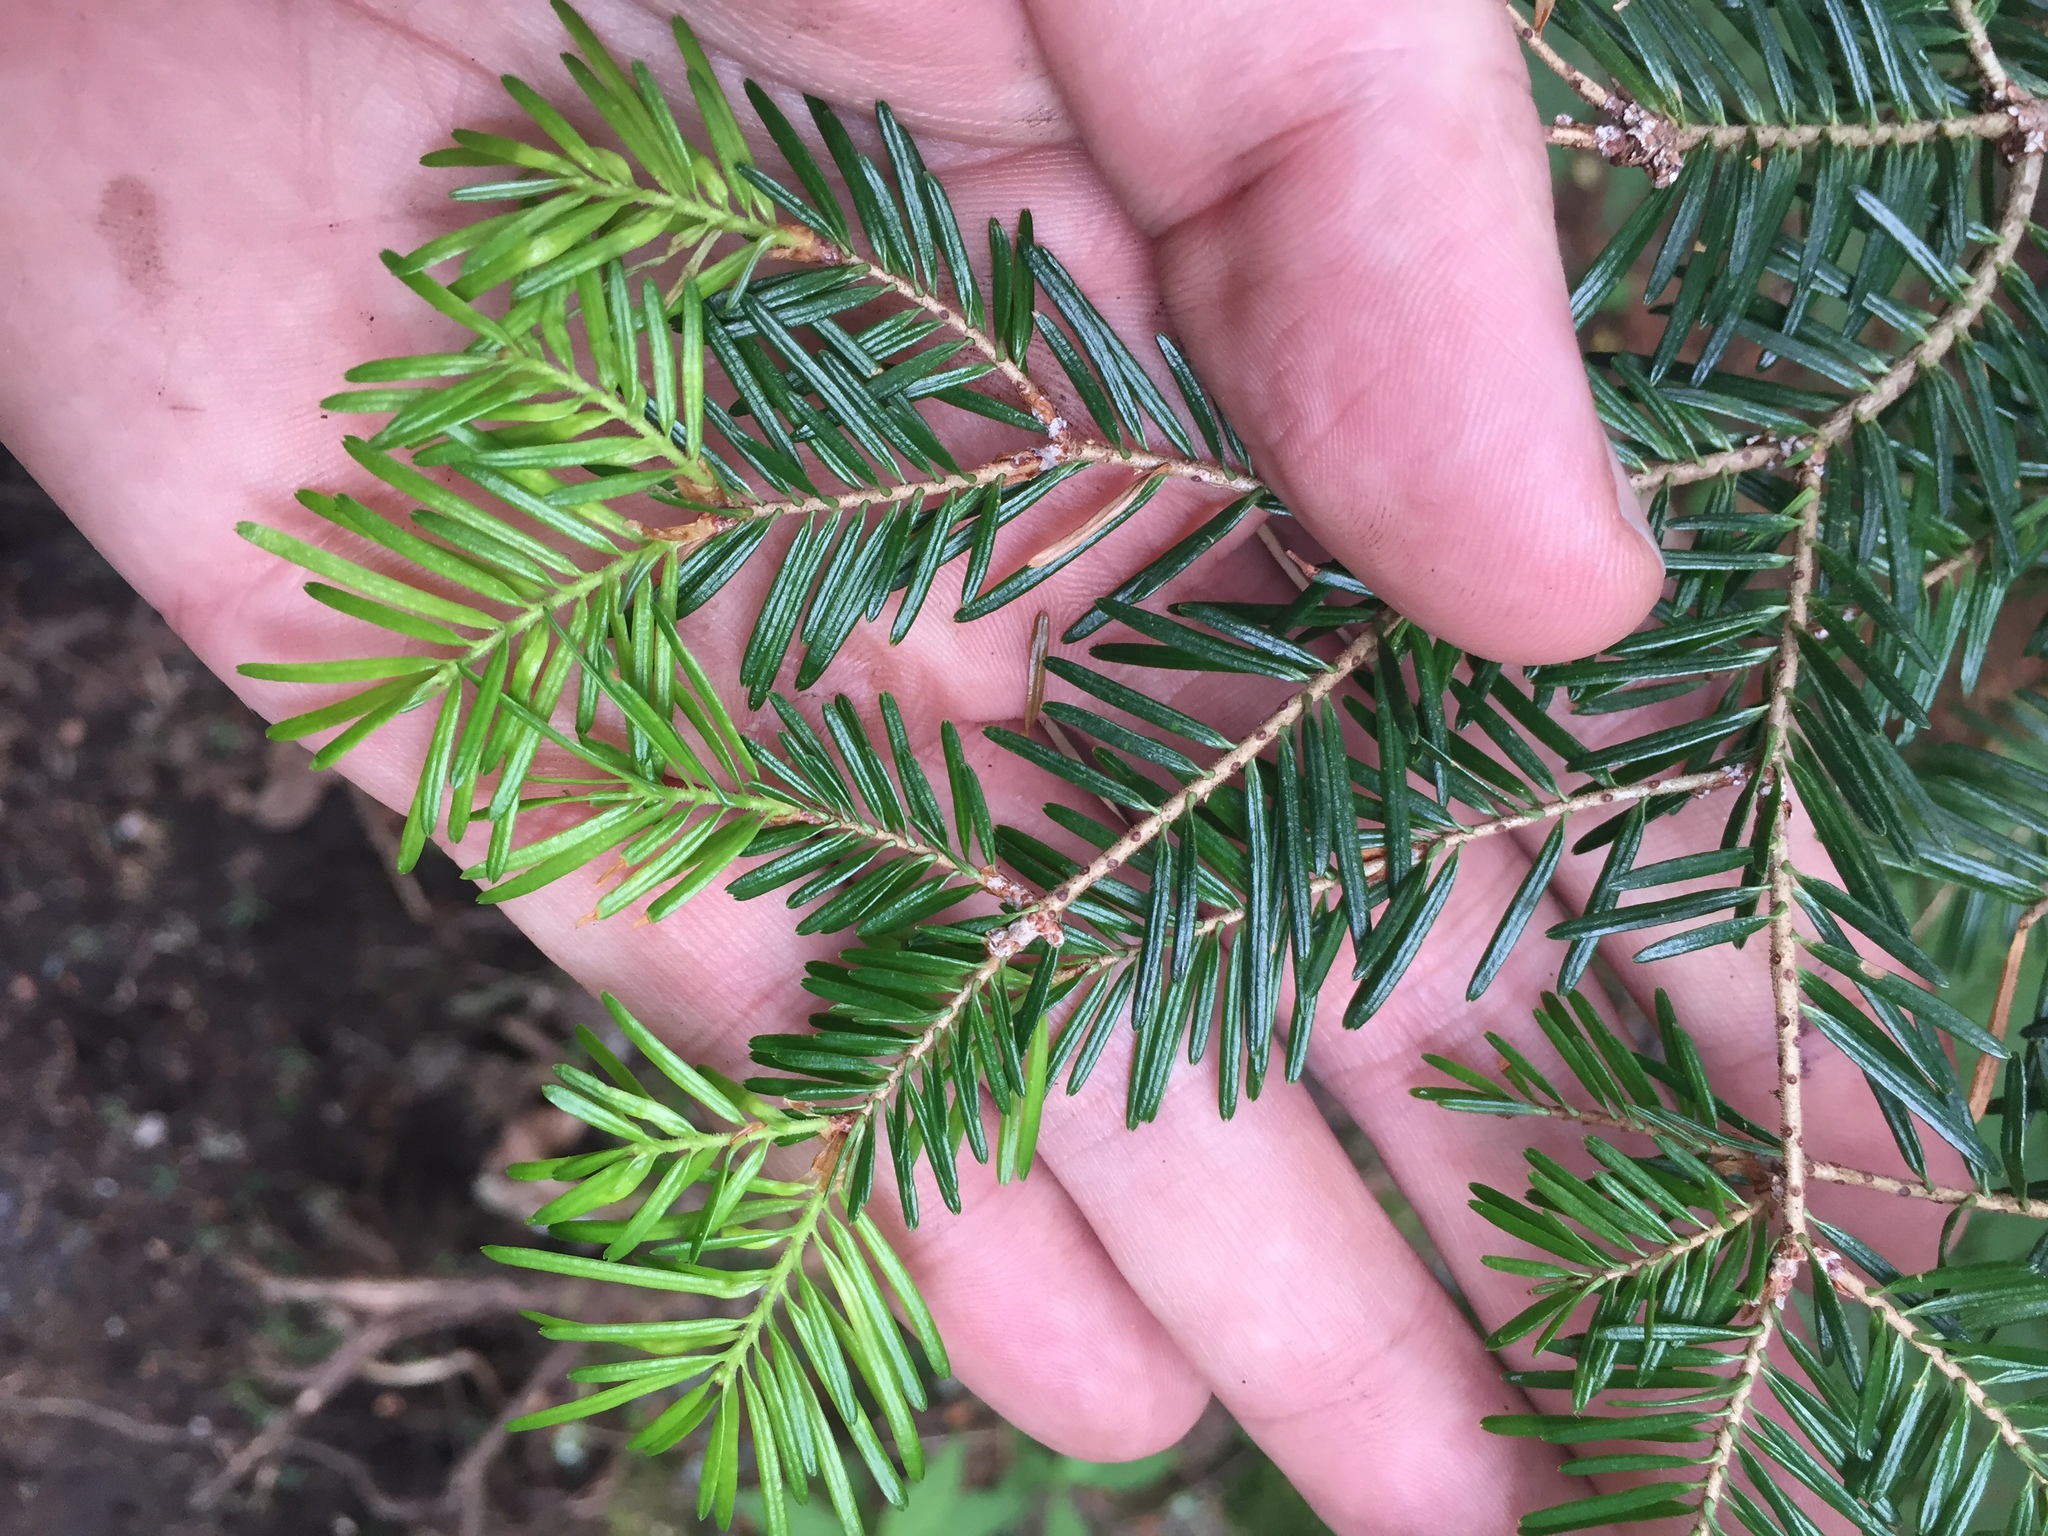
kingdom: Plantae
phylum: Tracheophyta
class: Pinopsida
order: Pinales
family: Pinaceae
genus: Abies
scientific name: Abies balsamea
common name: Balsam fir
